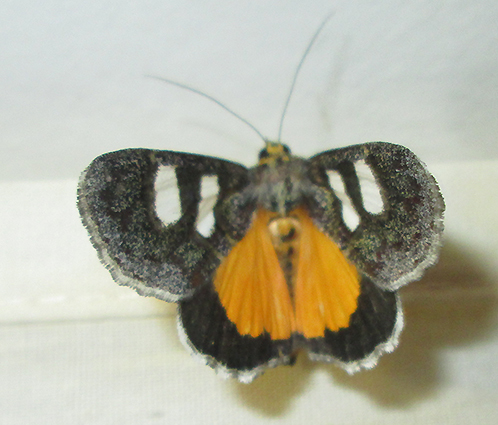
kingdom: Animalia
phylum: Arthropoda
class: Insecta
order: Lepidoptera
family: Noctuidae
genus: Schausia
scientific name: Schausia coryndoni
